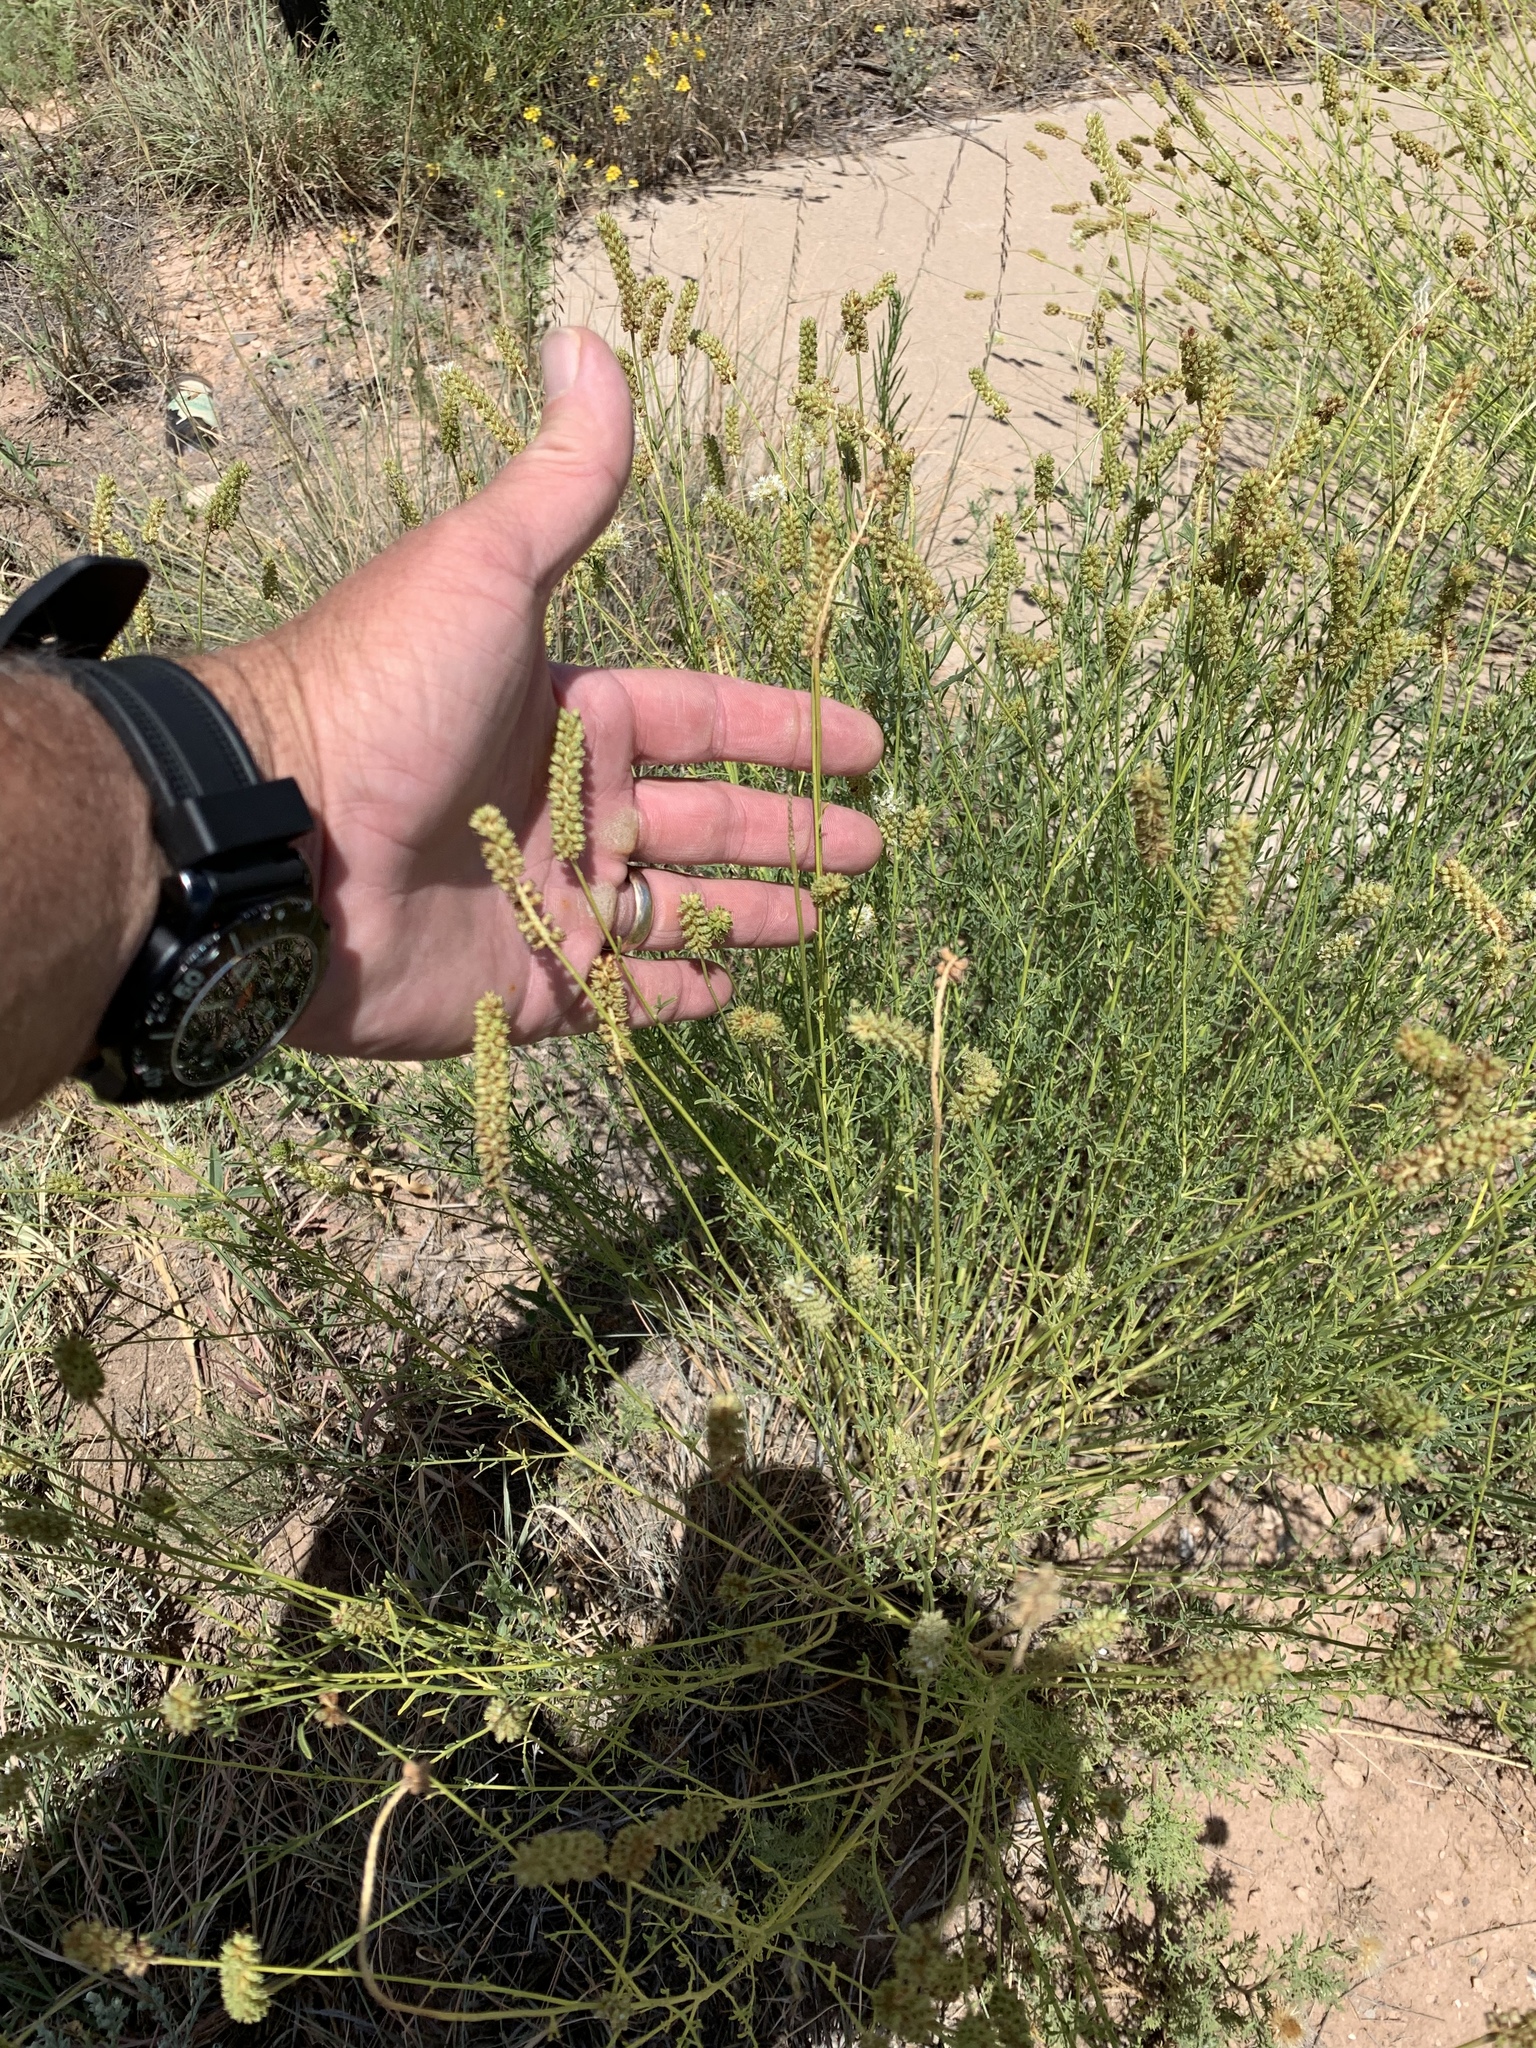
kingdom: Plantae
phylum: Tracheophyta
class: Magnoliopsida
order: Fabales
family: Fabaceae
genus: Dalea
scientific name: Dalea candida
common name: White prairie-clover
